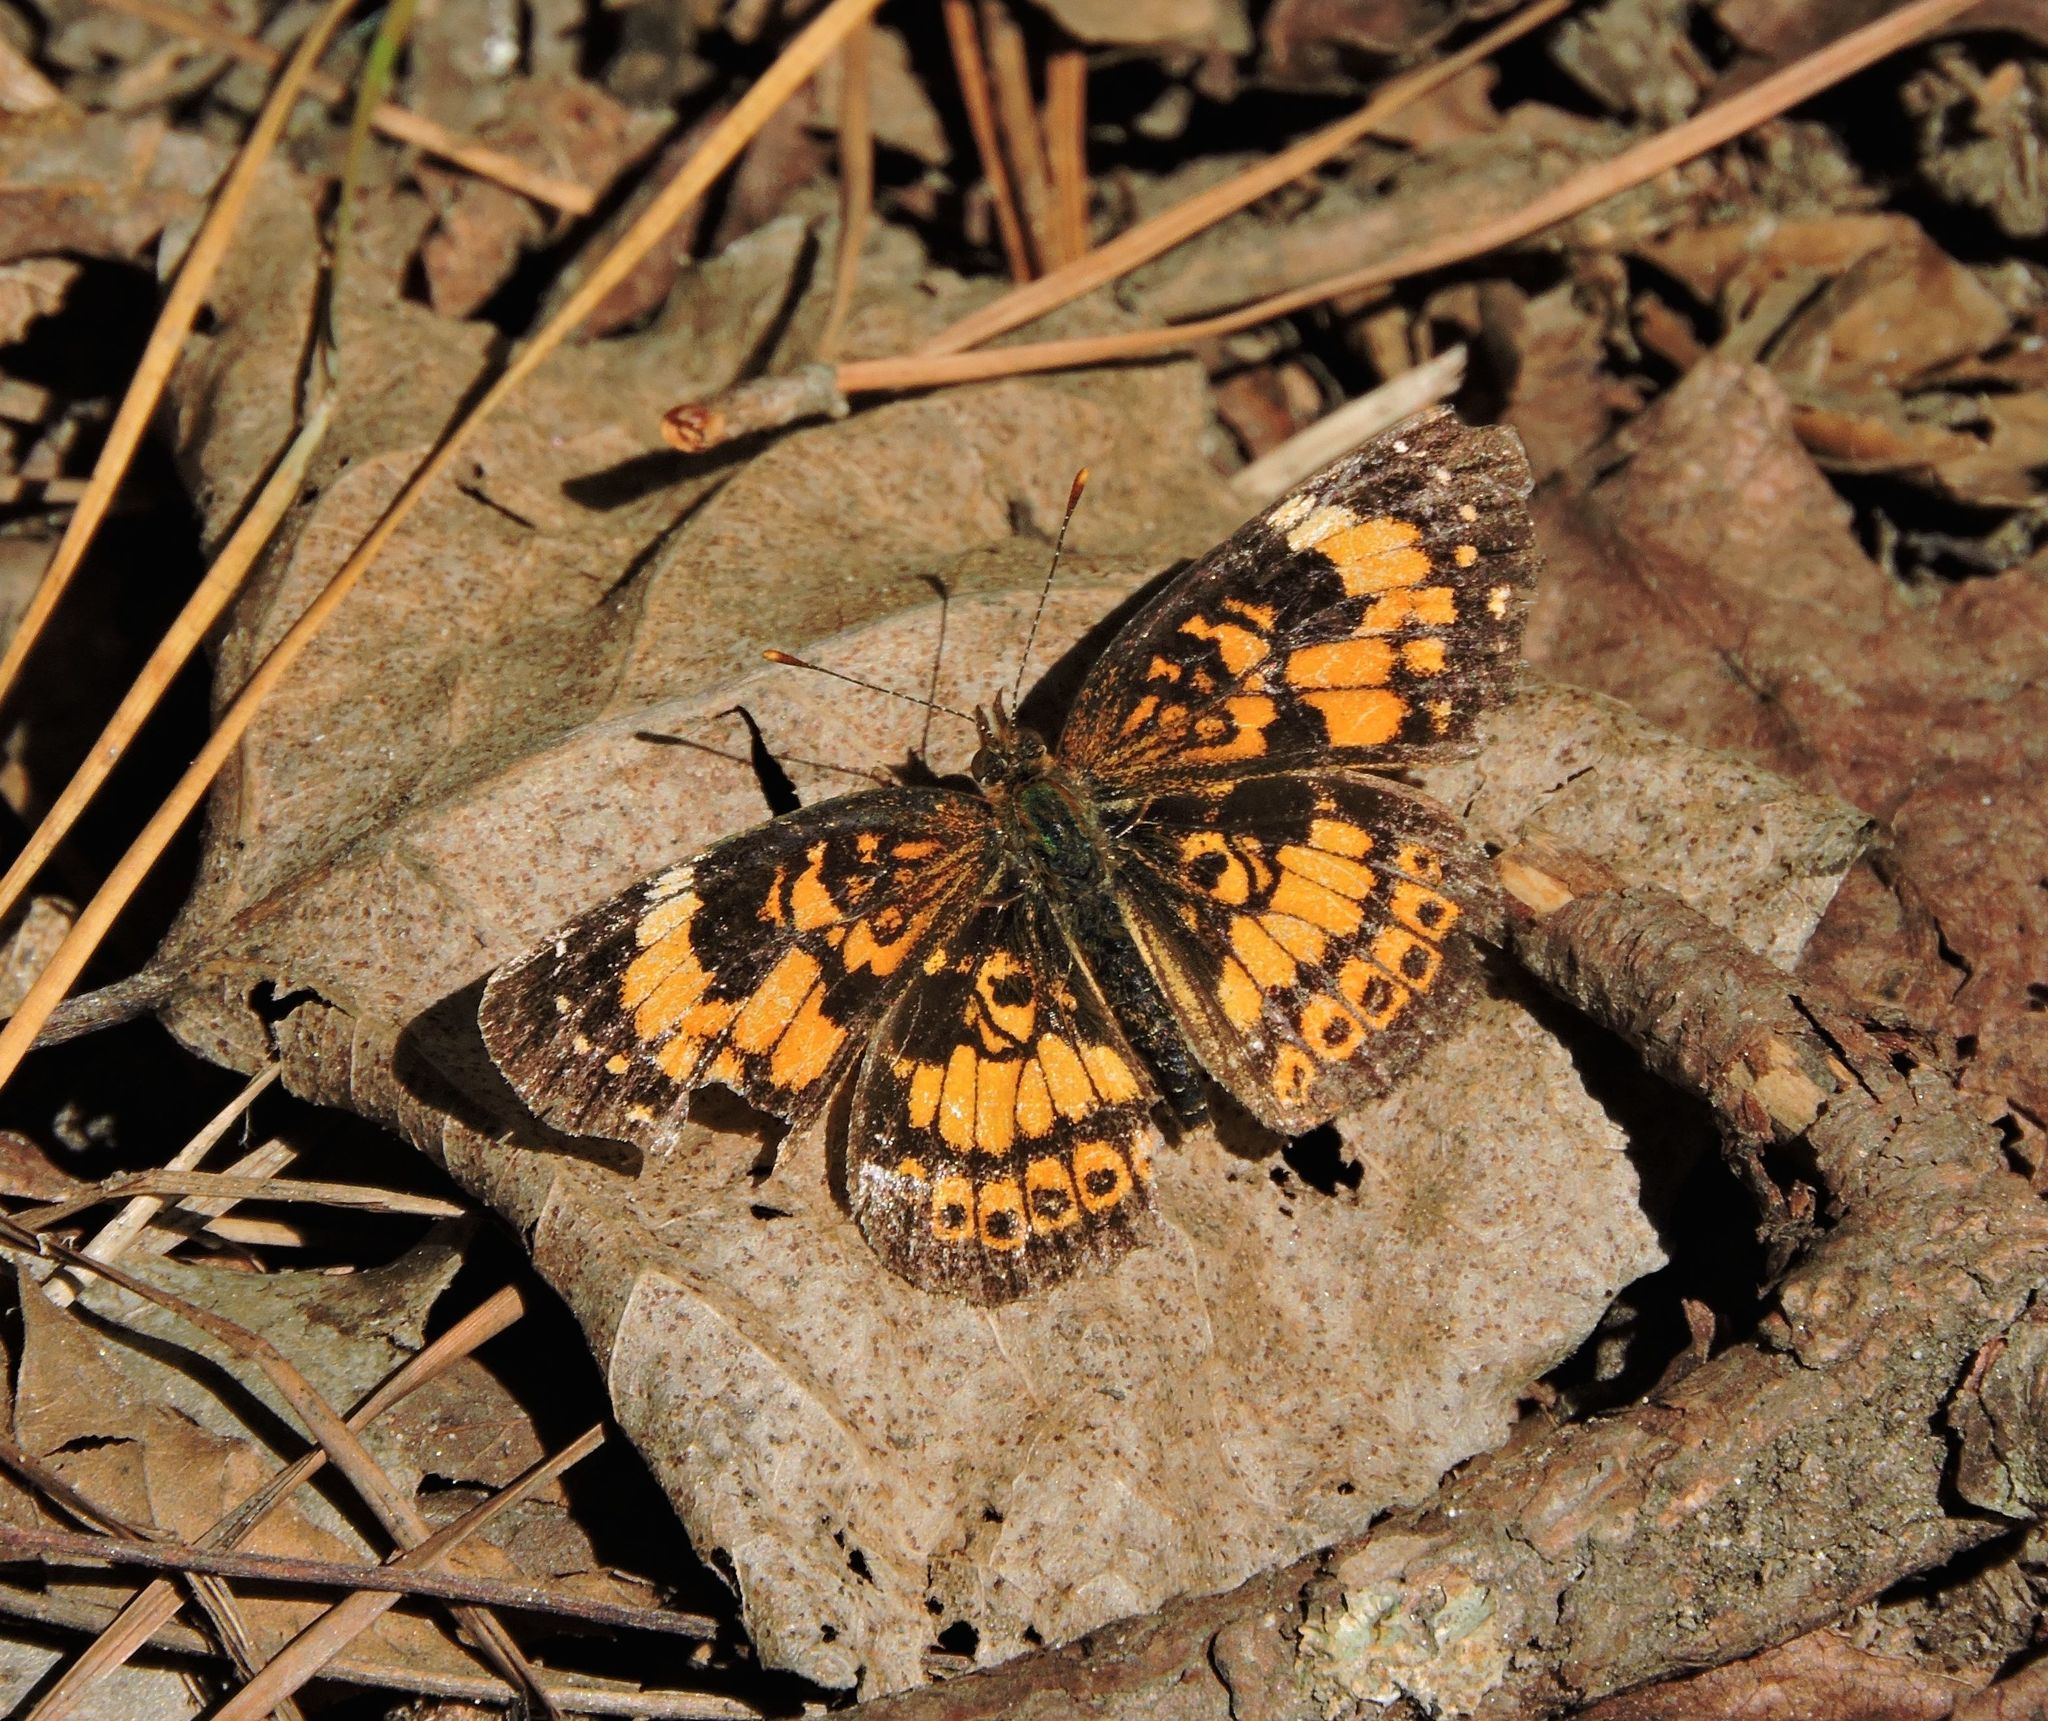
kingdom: Animalia
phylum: Arthropoda
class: Insecta
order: Lepidoptera
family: Nymphalidae
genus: Chlosyne
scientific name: Chlosyne nycteis
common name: Silvery checkerspot
